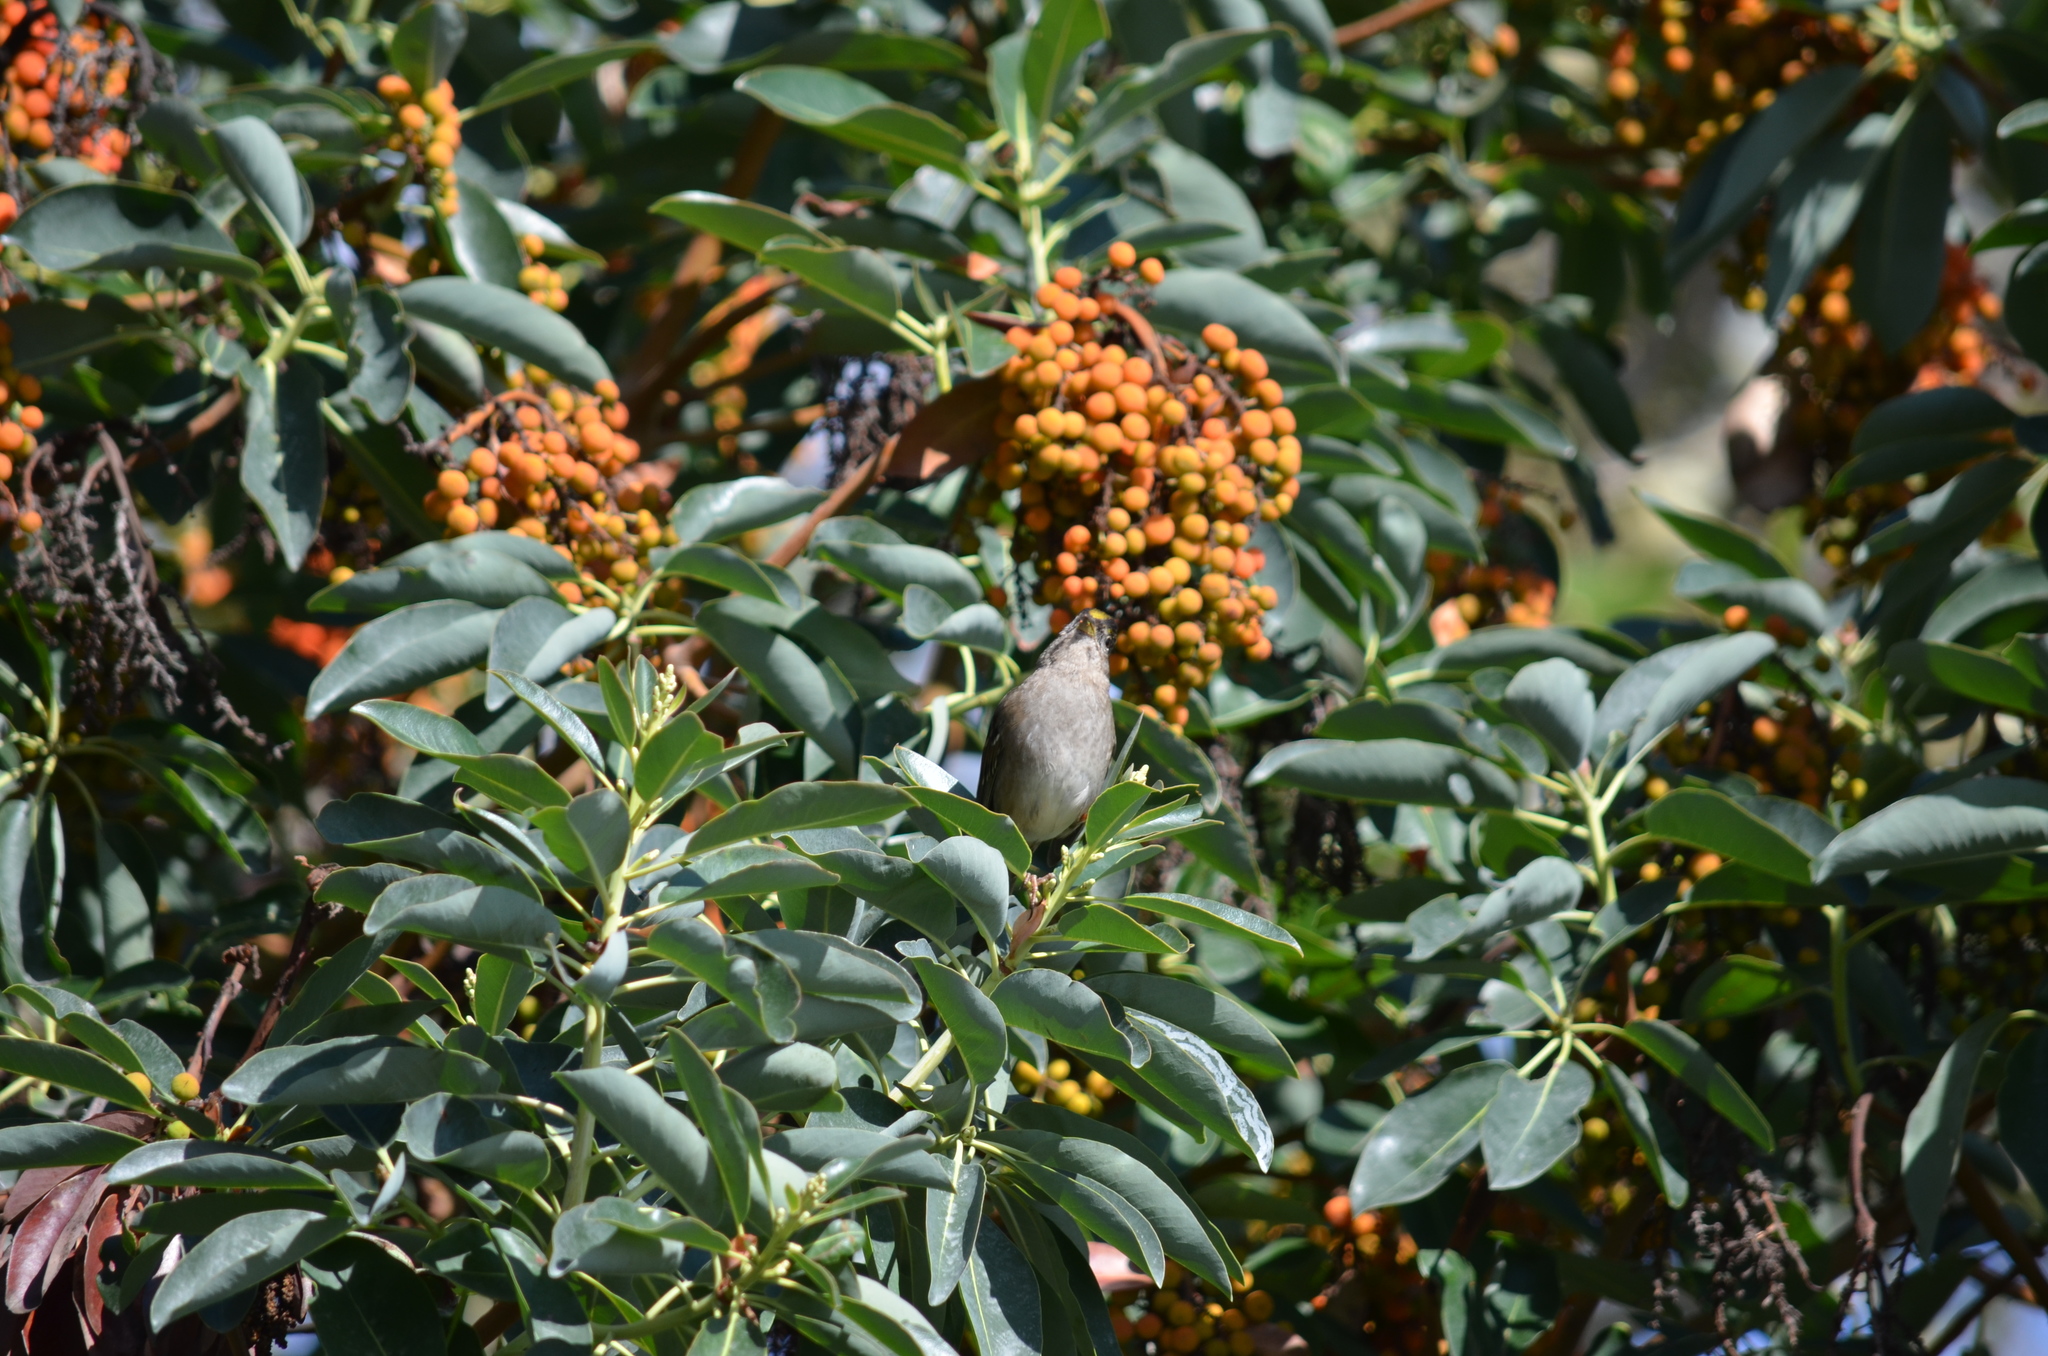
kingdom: Animalia
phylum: Chordata
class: Aves
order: Passeriformes
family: Passerellidae
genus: Zonotrichia
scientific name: Zonotrichia atricapilla
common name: Golden-crowned sparrow
